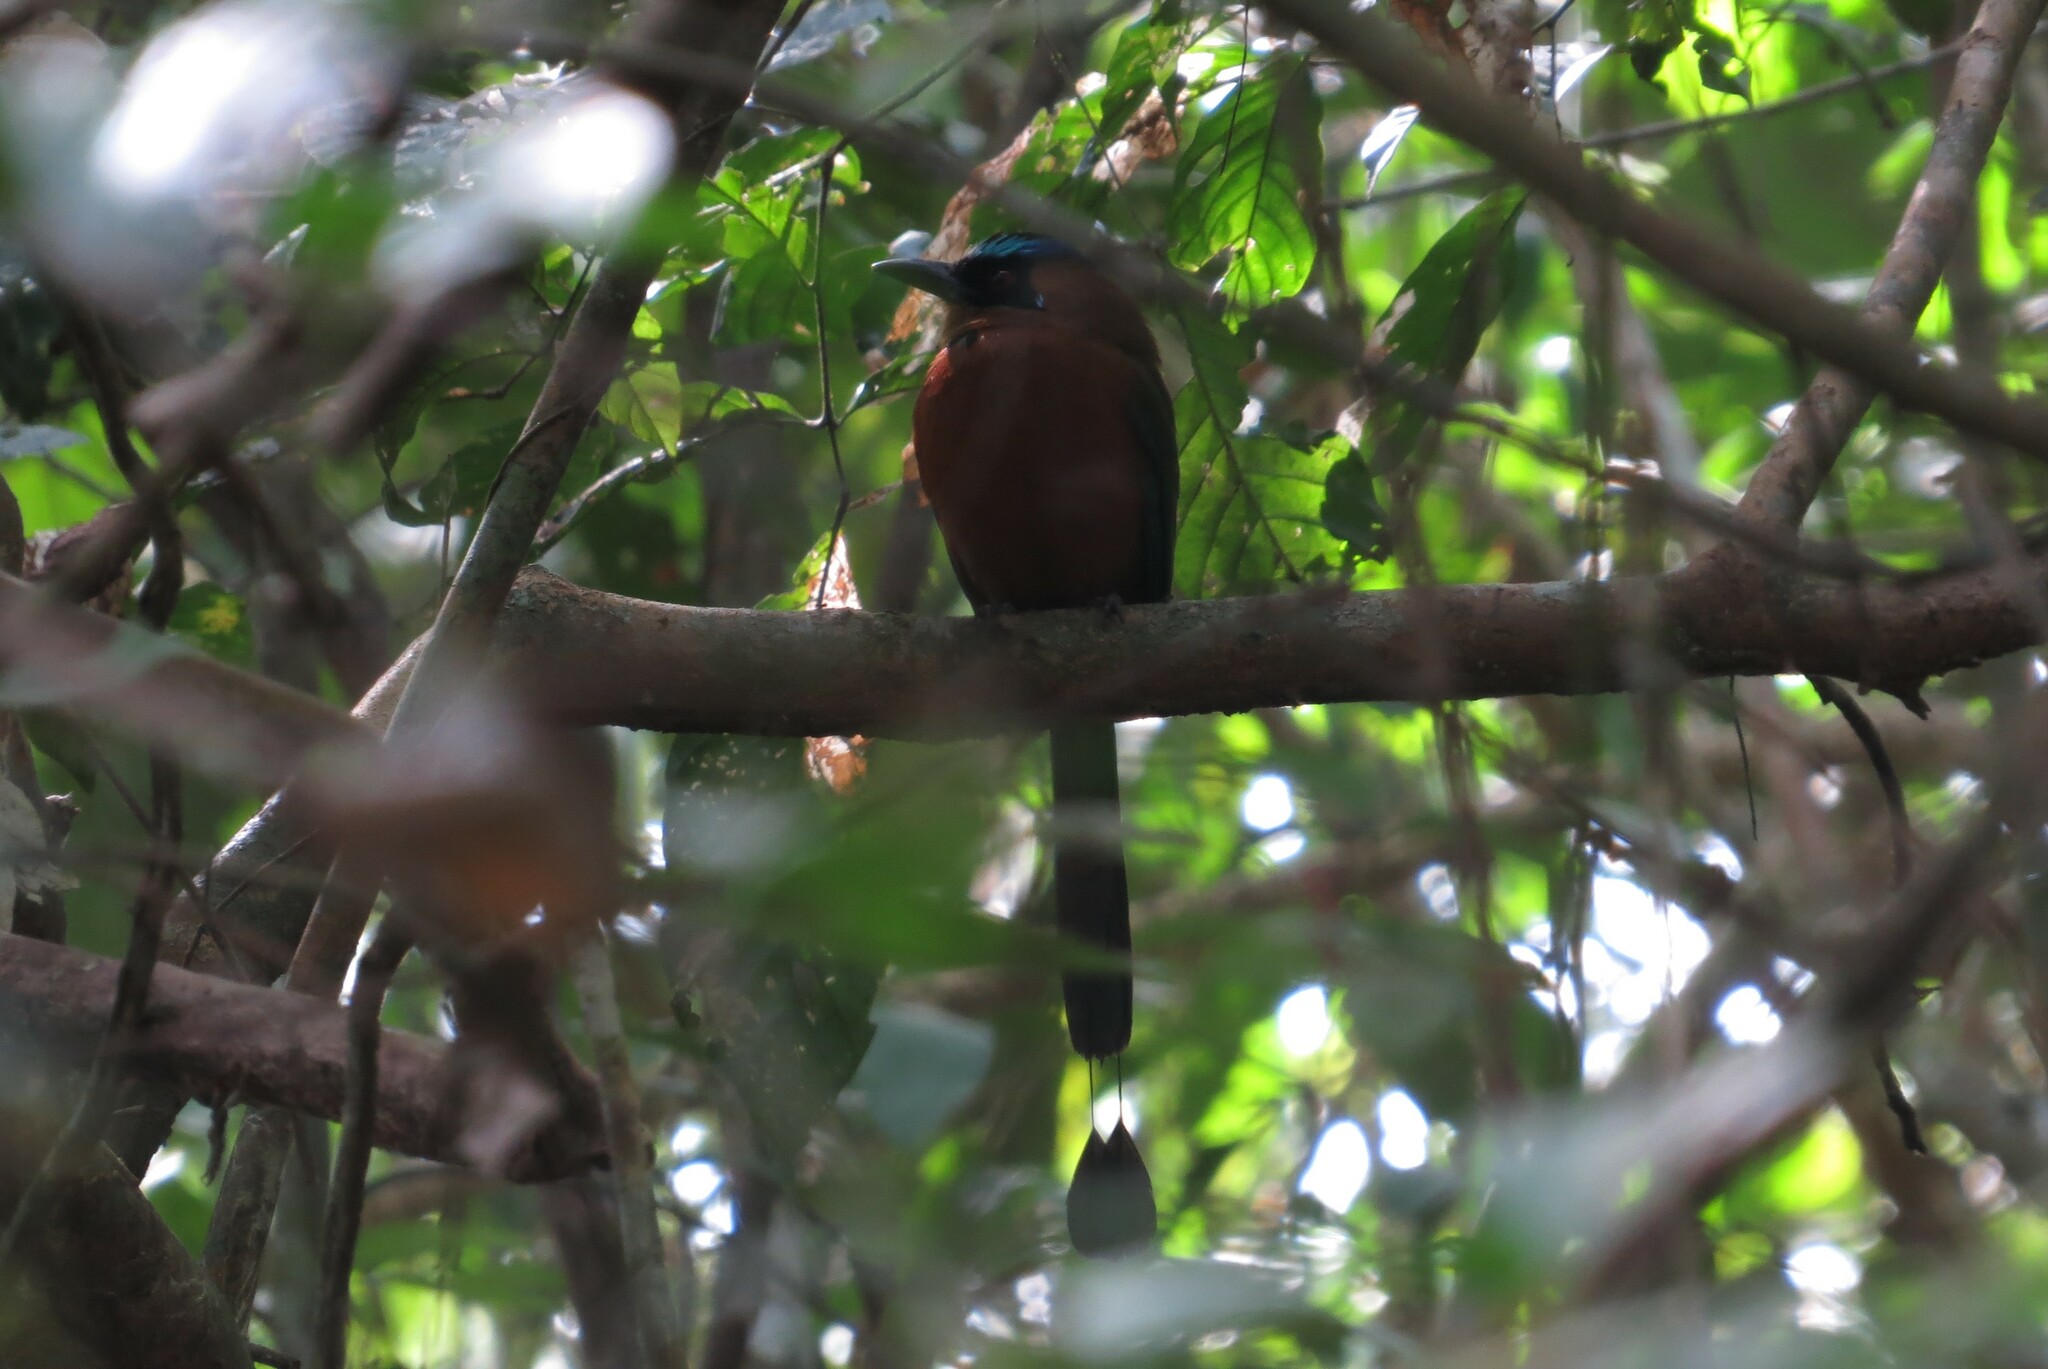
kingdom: Animalia
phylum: Chordata
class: Aves
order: Coraciiformes
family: Momotidae
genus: Momotus
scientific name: Momotus subrufescens
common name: Whooping motmot
